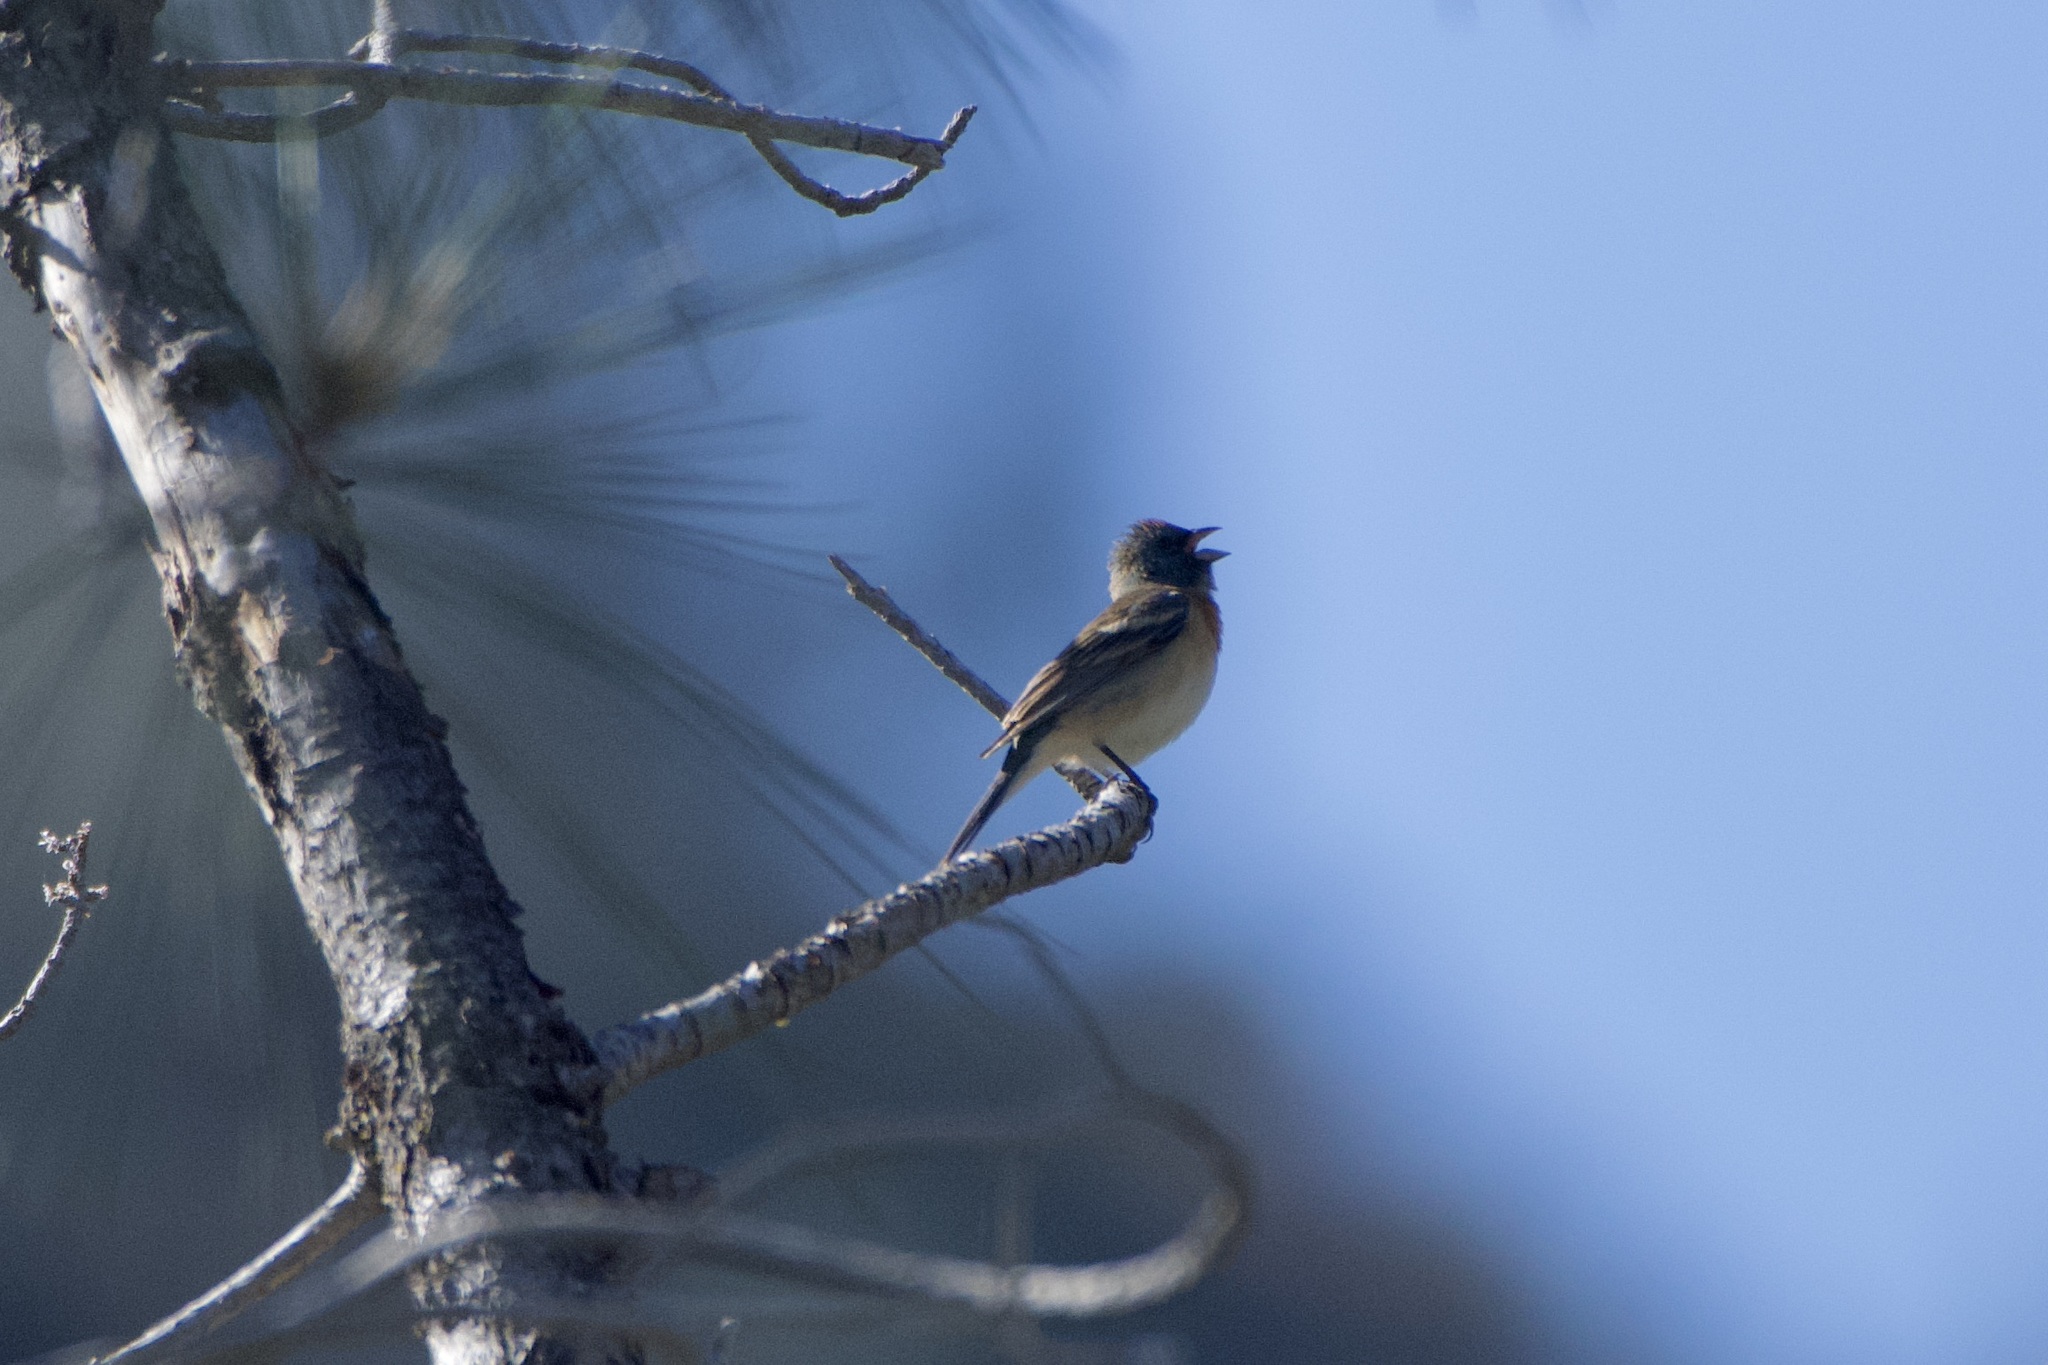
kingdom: Animalia
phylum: Chordata
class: Aves
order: Passeriformes
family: Cardinalidae
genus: Passerina
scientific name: Passerina amoena
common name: Lazuli bunting
